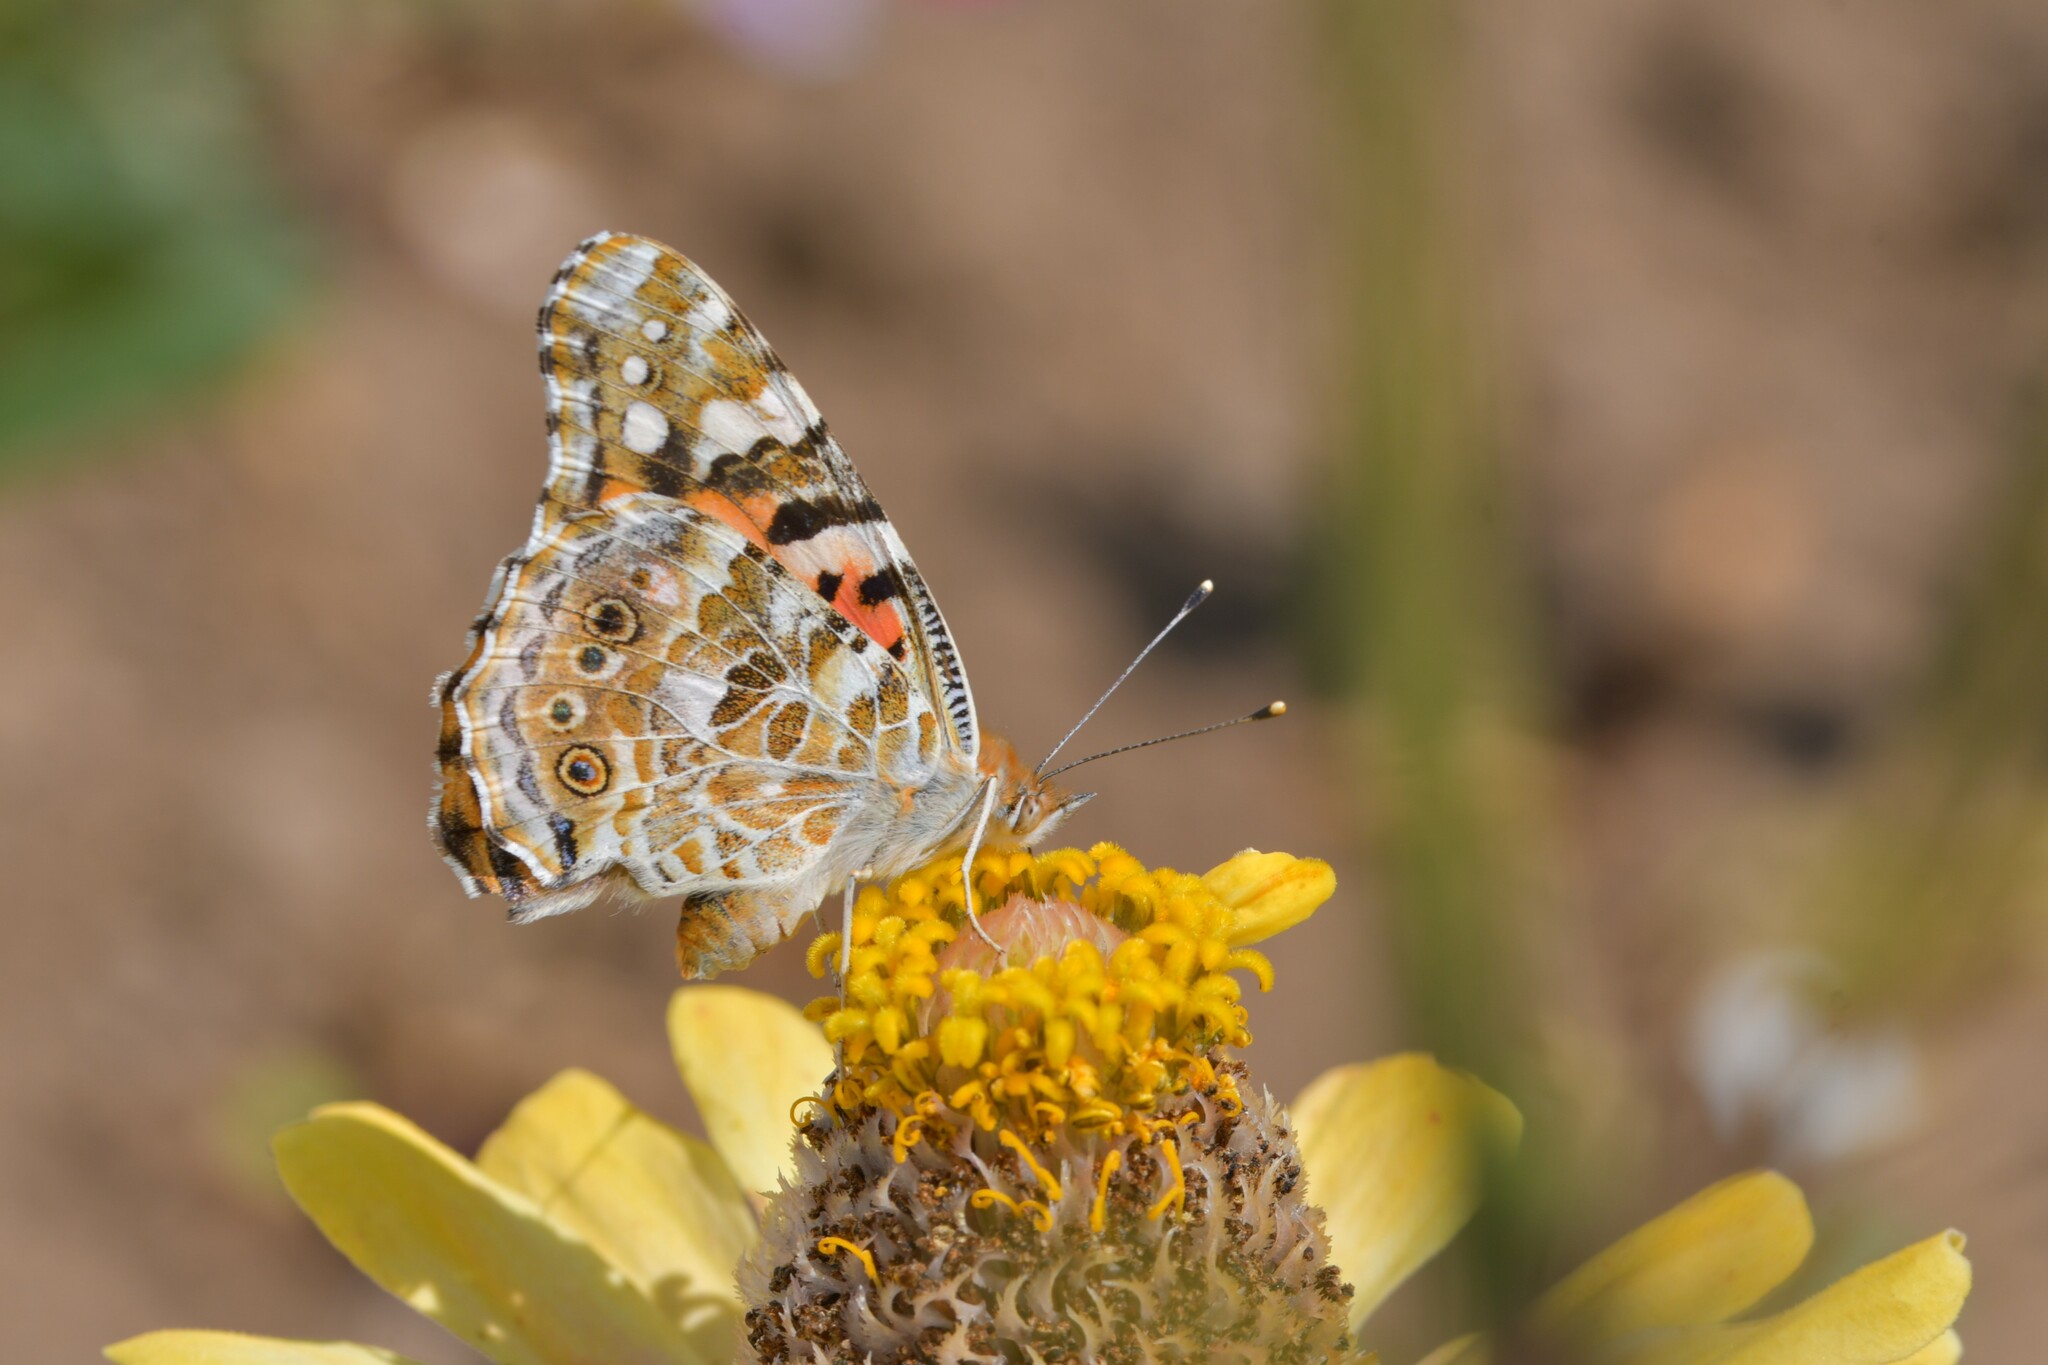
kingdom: Animalia
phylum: Arthropoda
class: Insecta
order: Lepidoptera
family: Nymphalidae
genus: Vanessa
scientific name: Vanessa cardui
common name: Painted lady
